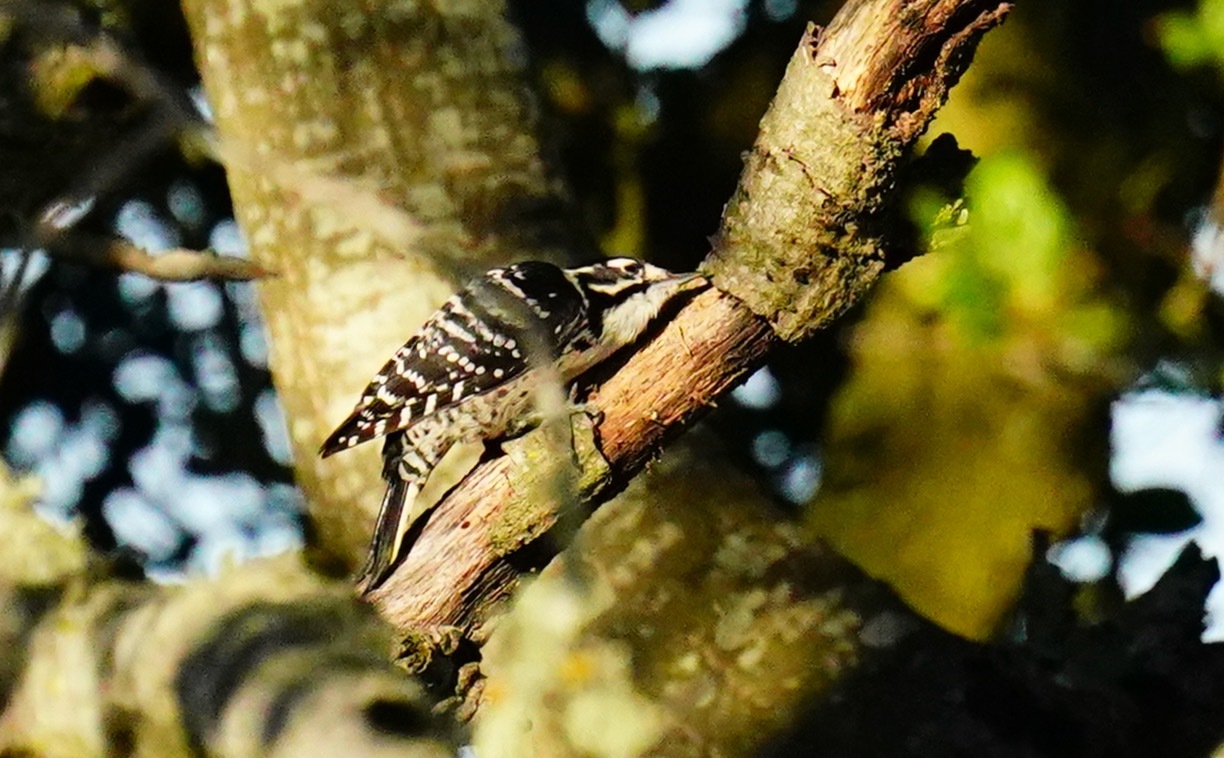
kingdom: Animalia
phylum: Chordata
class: Aves
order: Piciformes
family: Picidae
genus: Dryobates
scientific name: Dryobates nuttallii
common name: Nuttall's woodpecker
